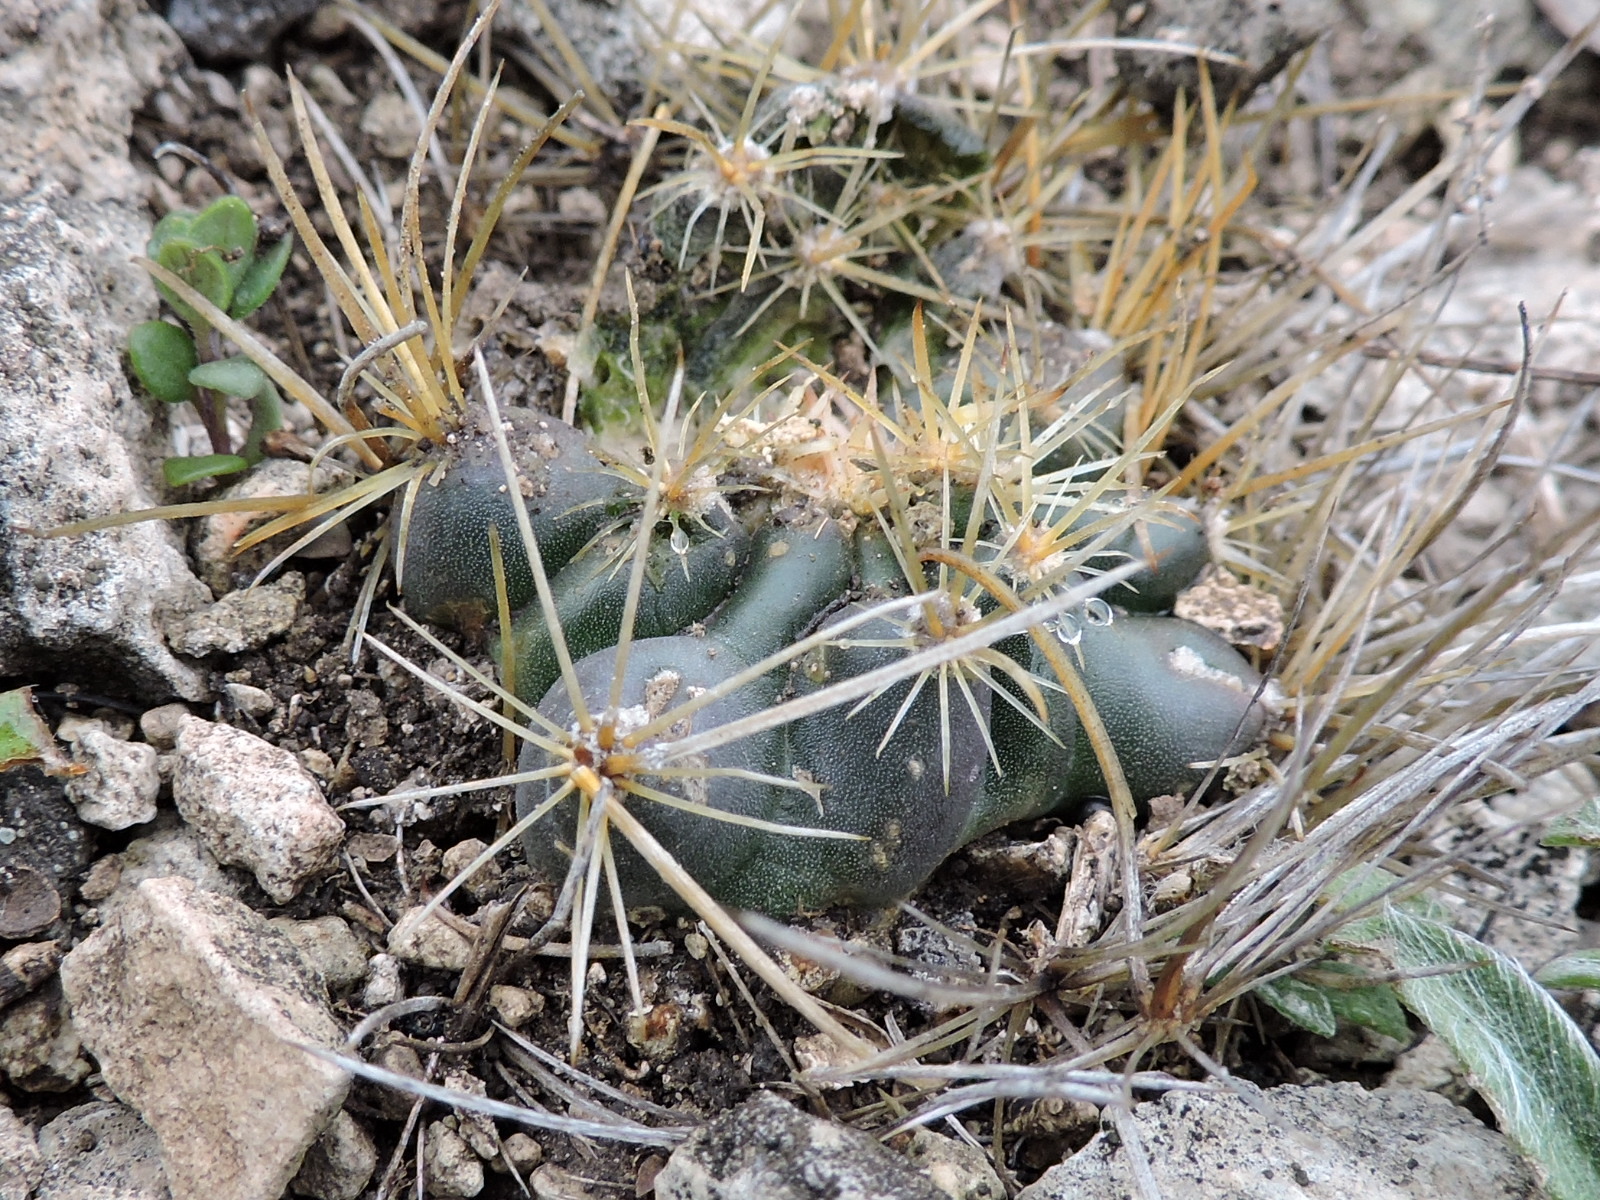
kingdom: Plantae
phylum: Tracheophyta
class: Magnoliopsida
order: Caryophyllales
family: Cactaceae
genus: Sclerocactus
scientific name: Sclerocactus brevihamatus
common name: Engelmann's fishhook cactus
